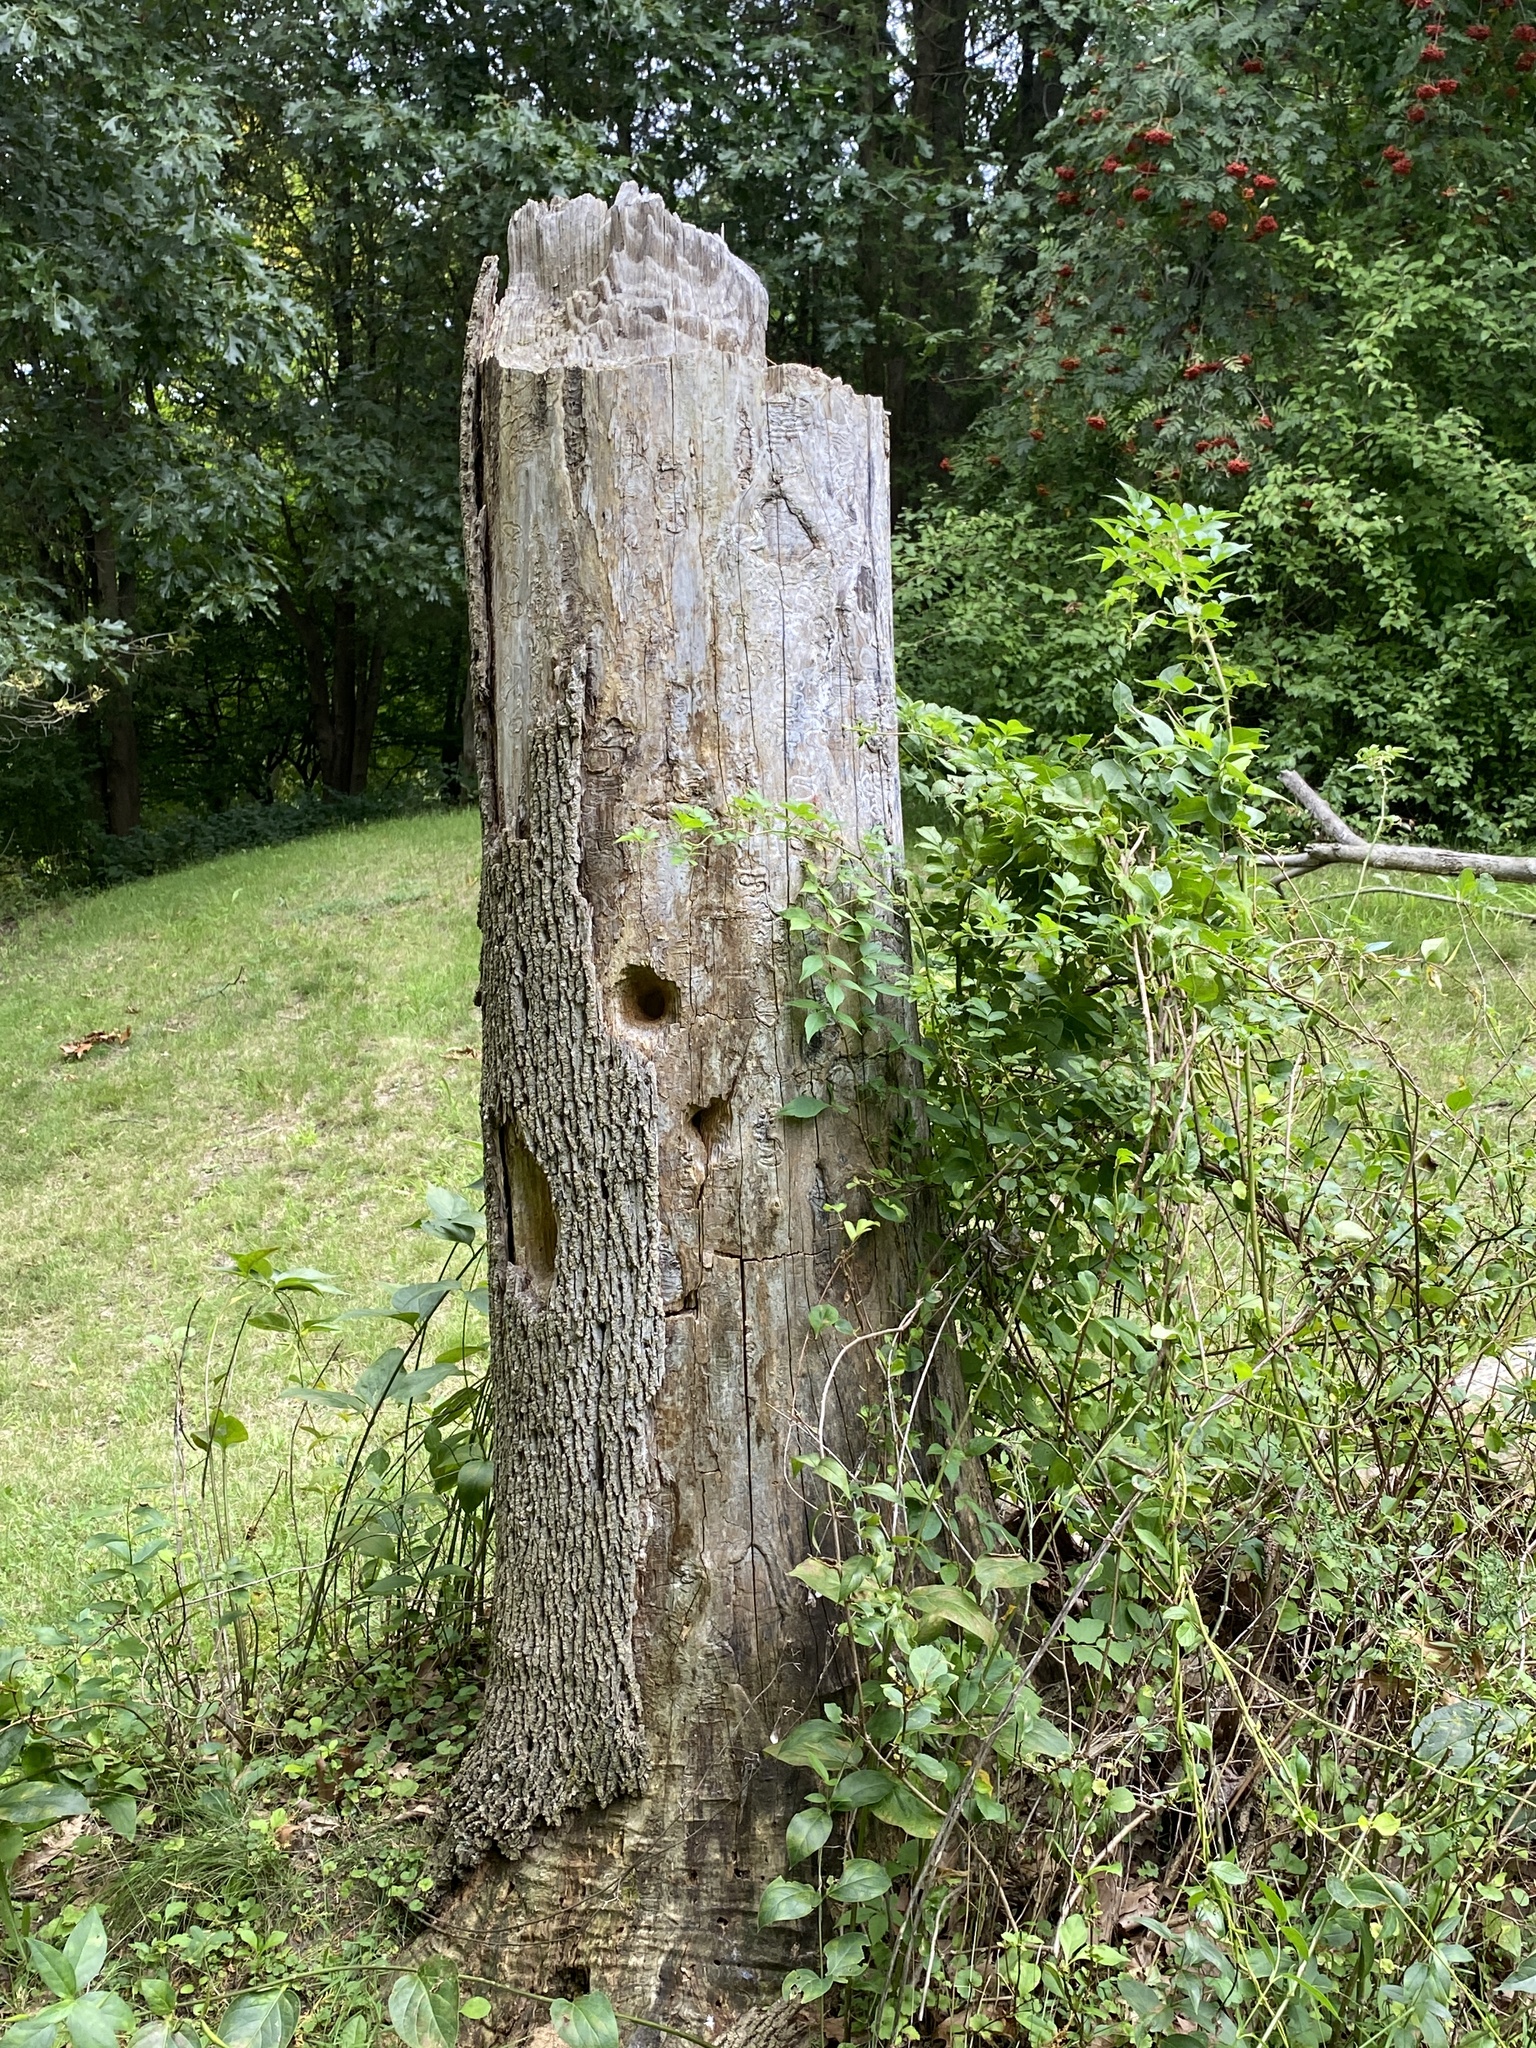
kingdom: Animalia
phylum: Chordata
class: Aves
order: Piciformes
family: Picidae
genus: Dryocopus
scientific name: Dryocopus pileatus
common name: Pileated woodpecker
